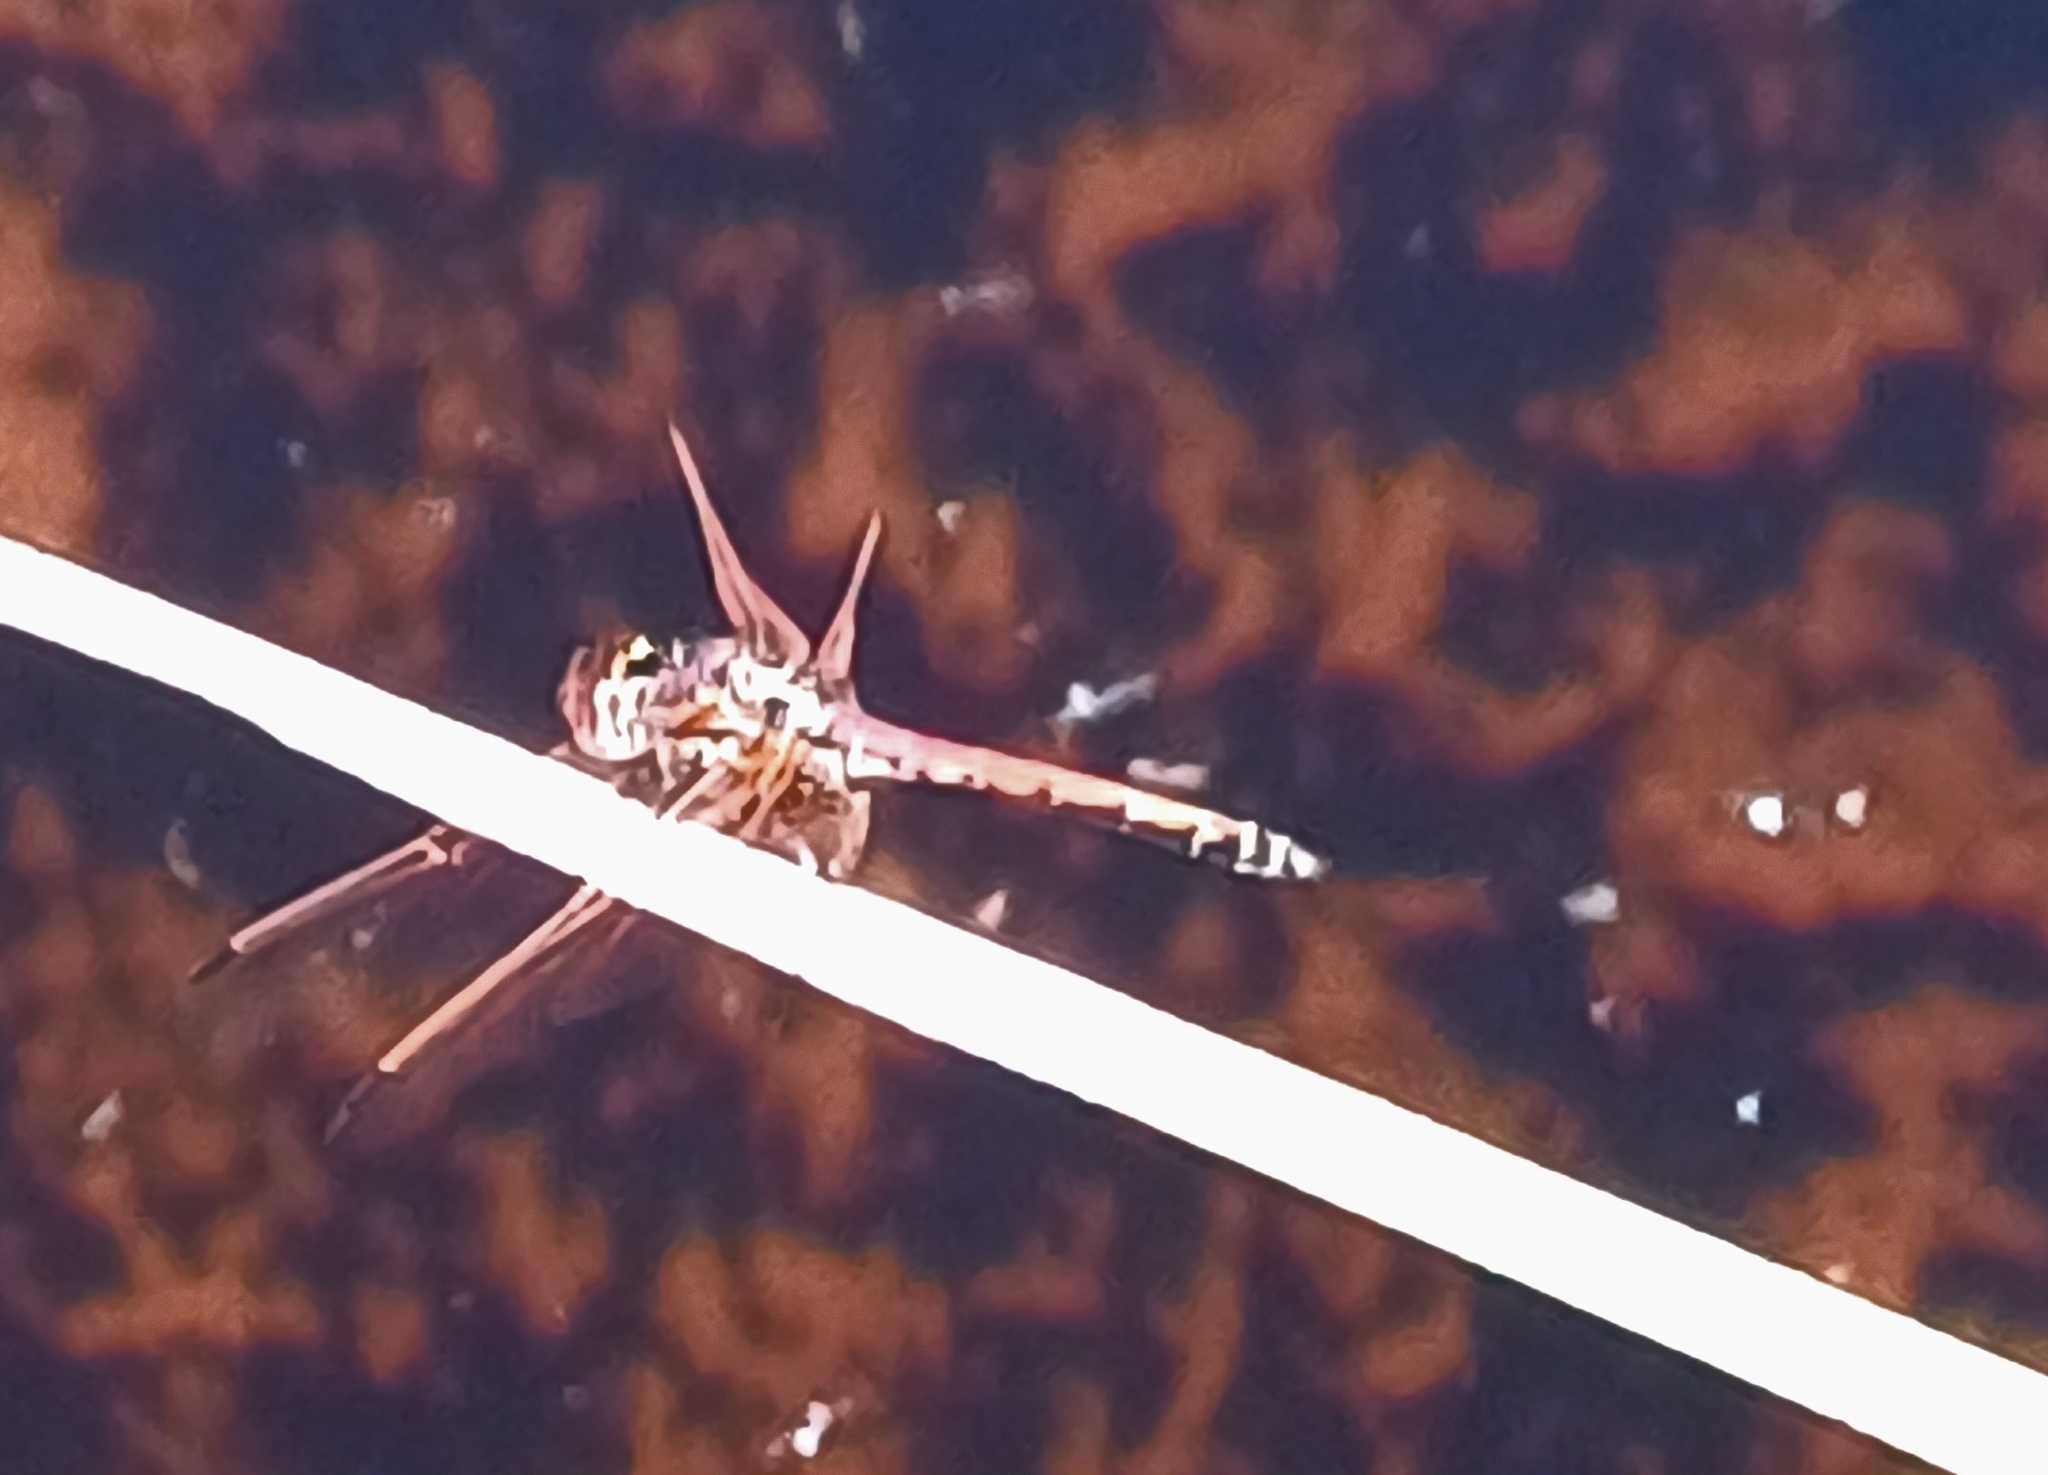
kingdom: Animalia
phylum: Arthropoda
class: Insecta
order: Odonata
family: Libellulidae
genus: Trithemis
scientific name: Trithemis arteriosa
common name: Red-veined dropwing
